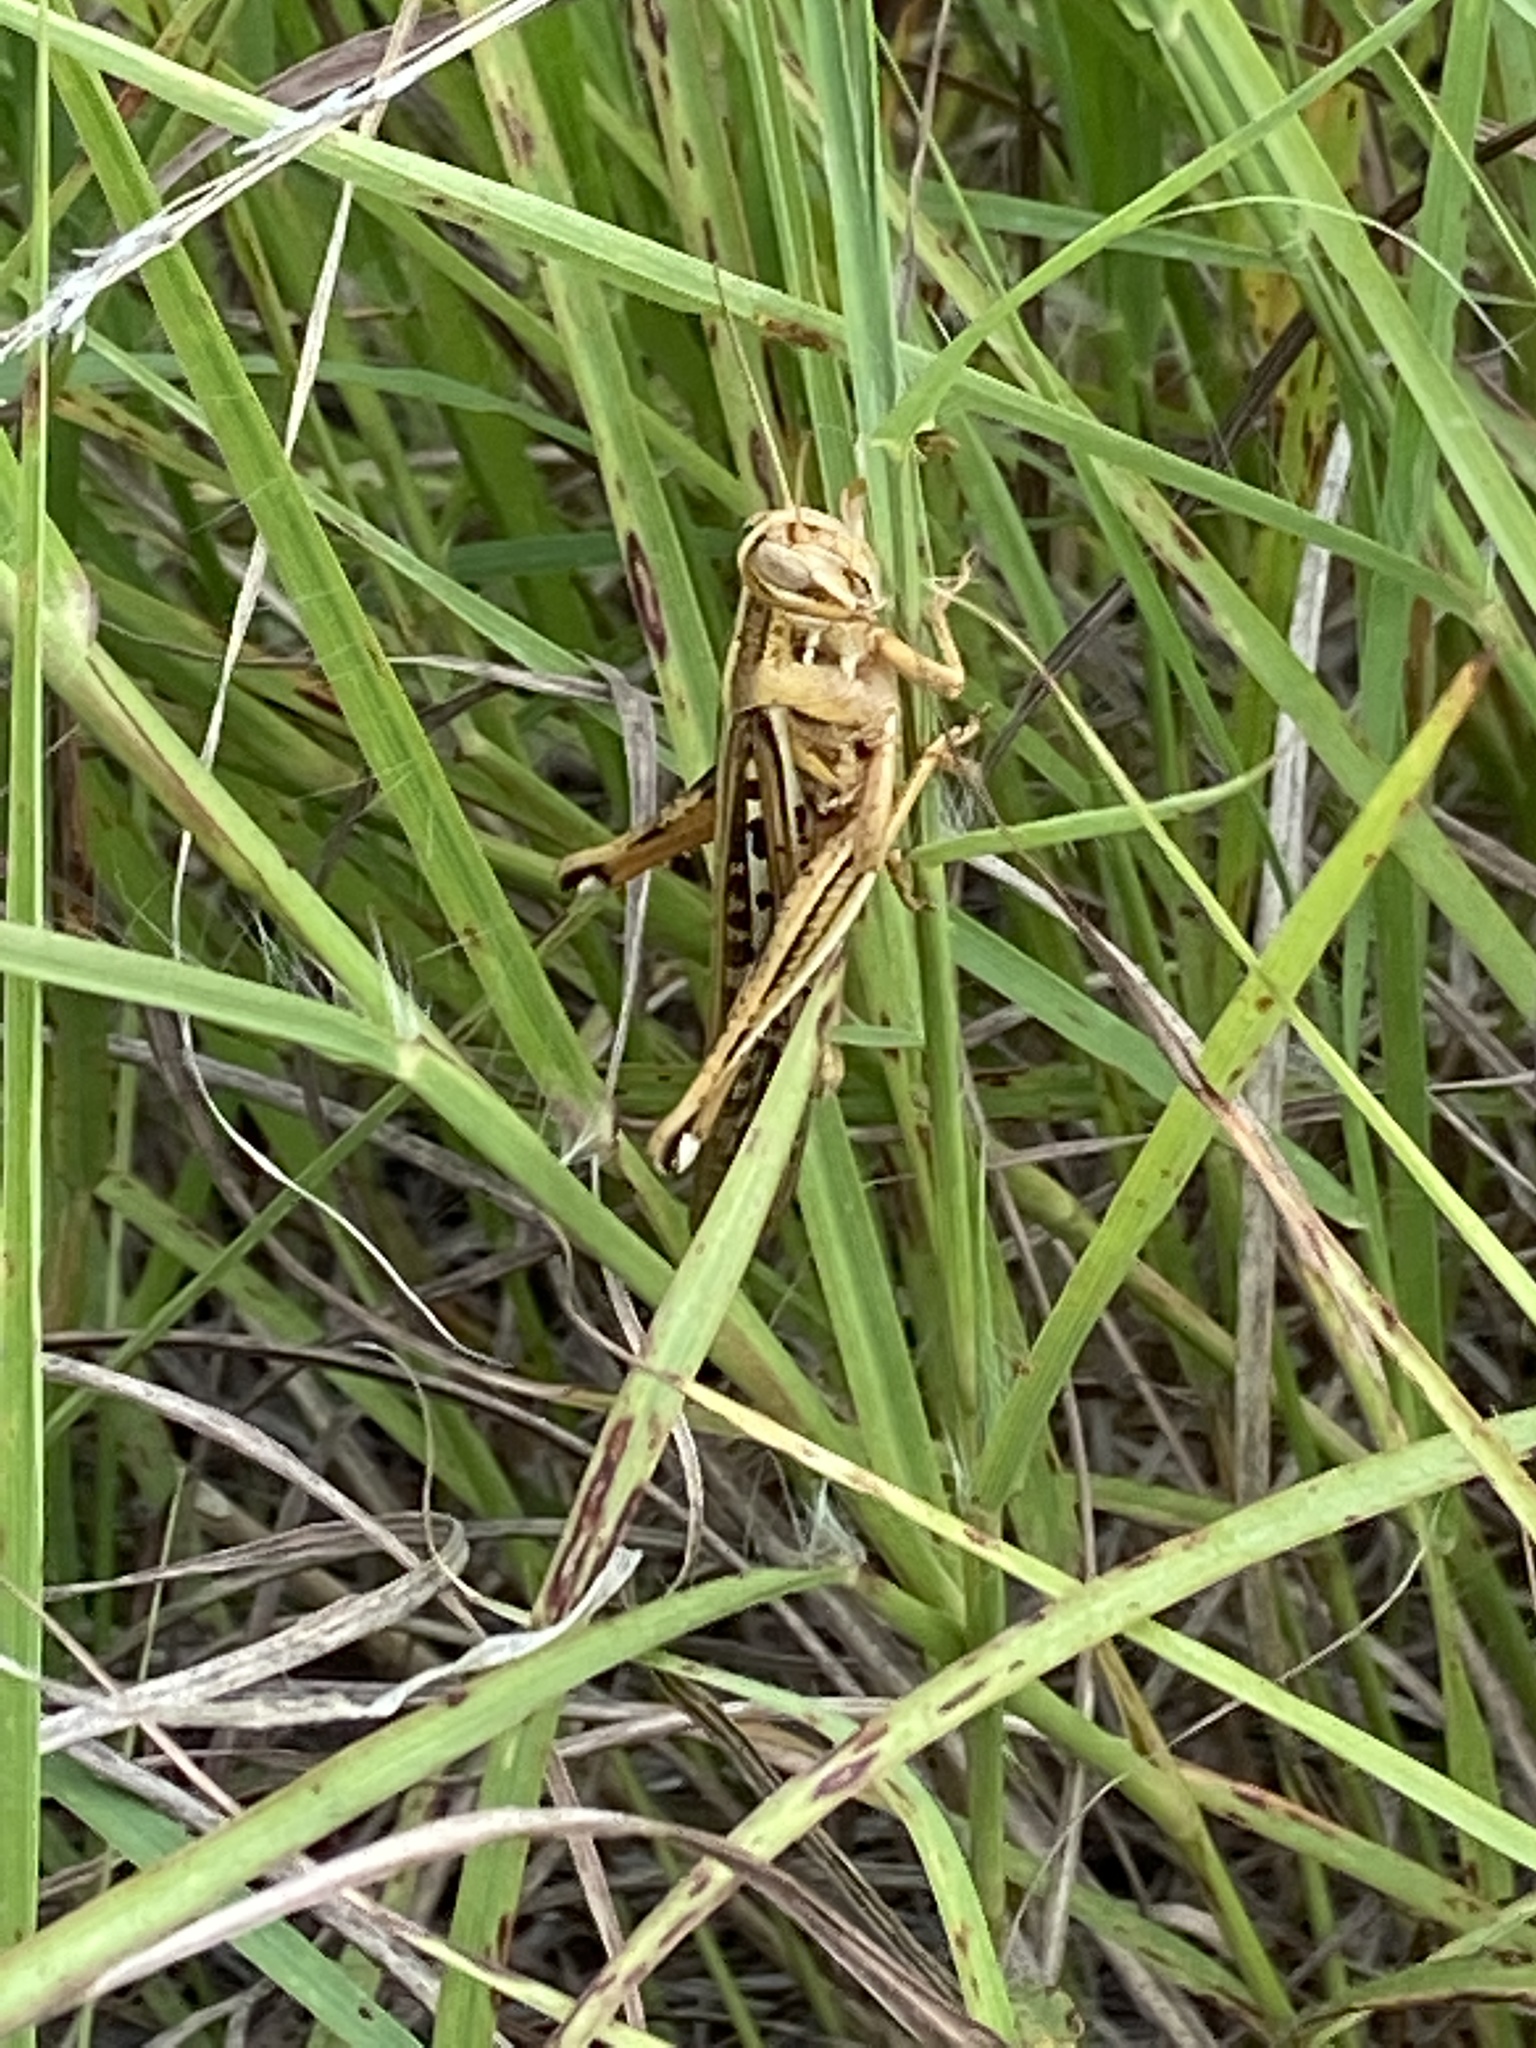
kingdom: Animalia
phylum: Arthropoda
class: Insecta
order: Orthoptera
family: Acrididae
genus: Schistocerca
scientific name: Schistocerca americana
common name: American bird locust
